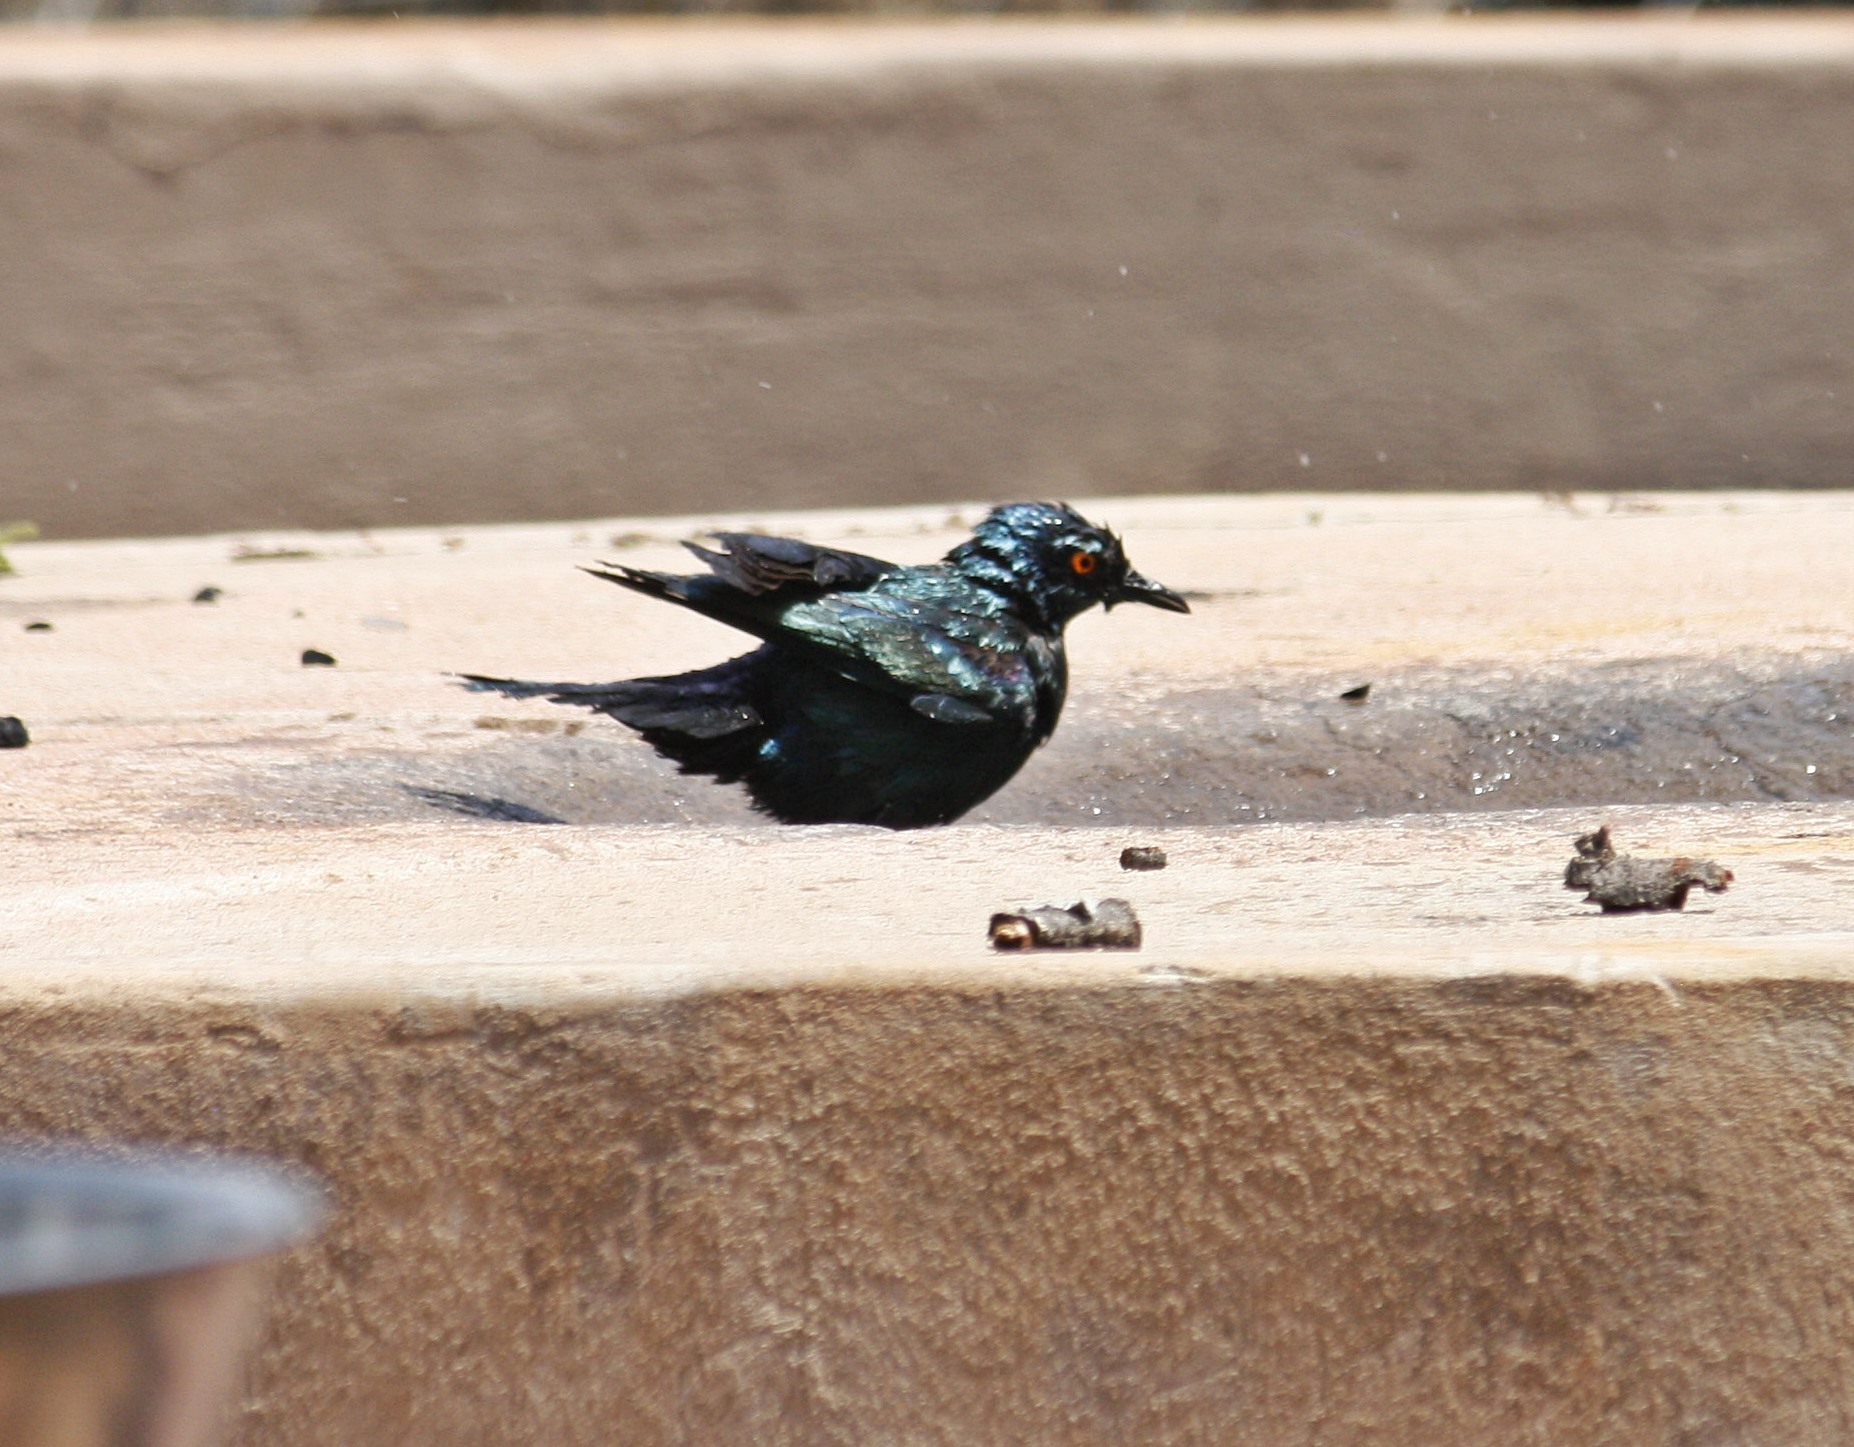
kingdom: Animalia
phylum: Chordata
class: Aves
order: Passeriformes
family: Sturnidae
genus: Lamprotornis
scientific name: Lamprotornis nitens
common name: Cape starling
